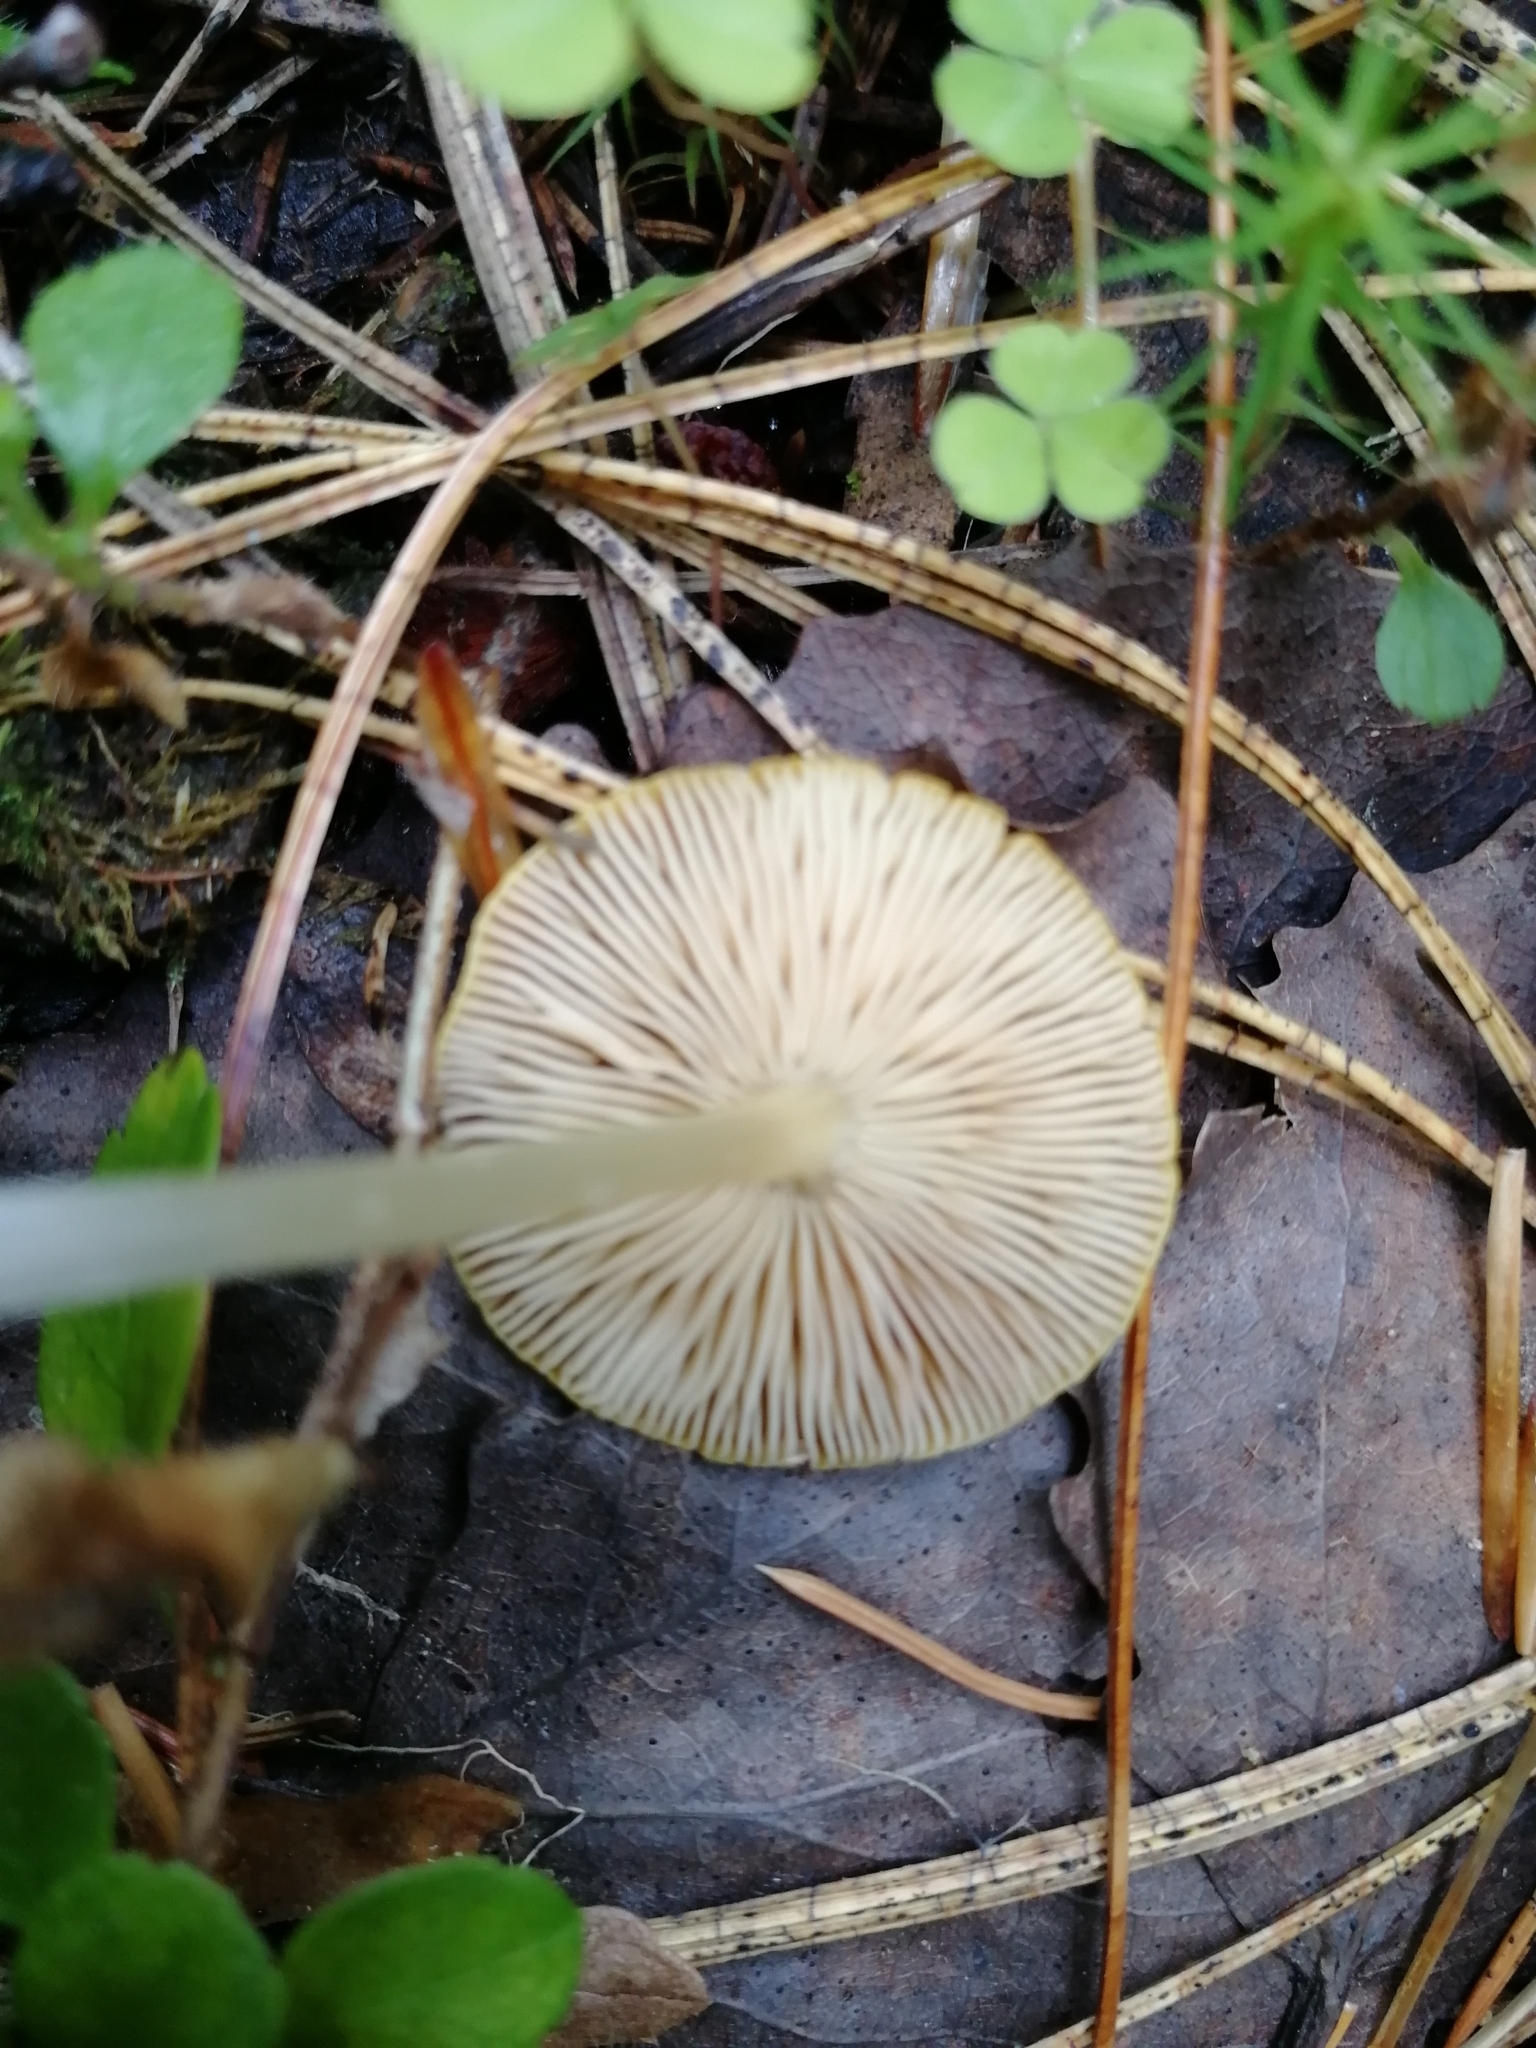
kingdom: Fungi
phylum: Basidiomycota
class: Agaricomycetes
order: Agaricales
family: Pluteaceae
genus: Pluteus
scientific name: Pluteus leoninus
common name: Lion shield
